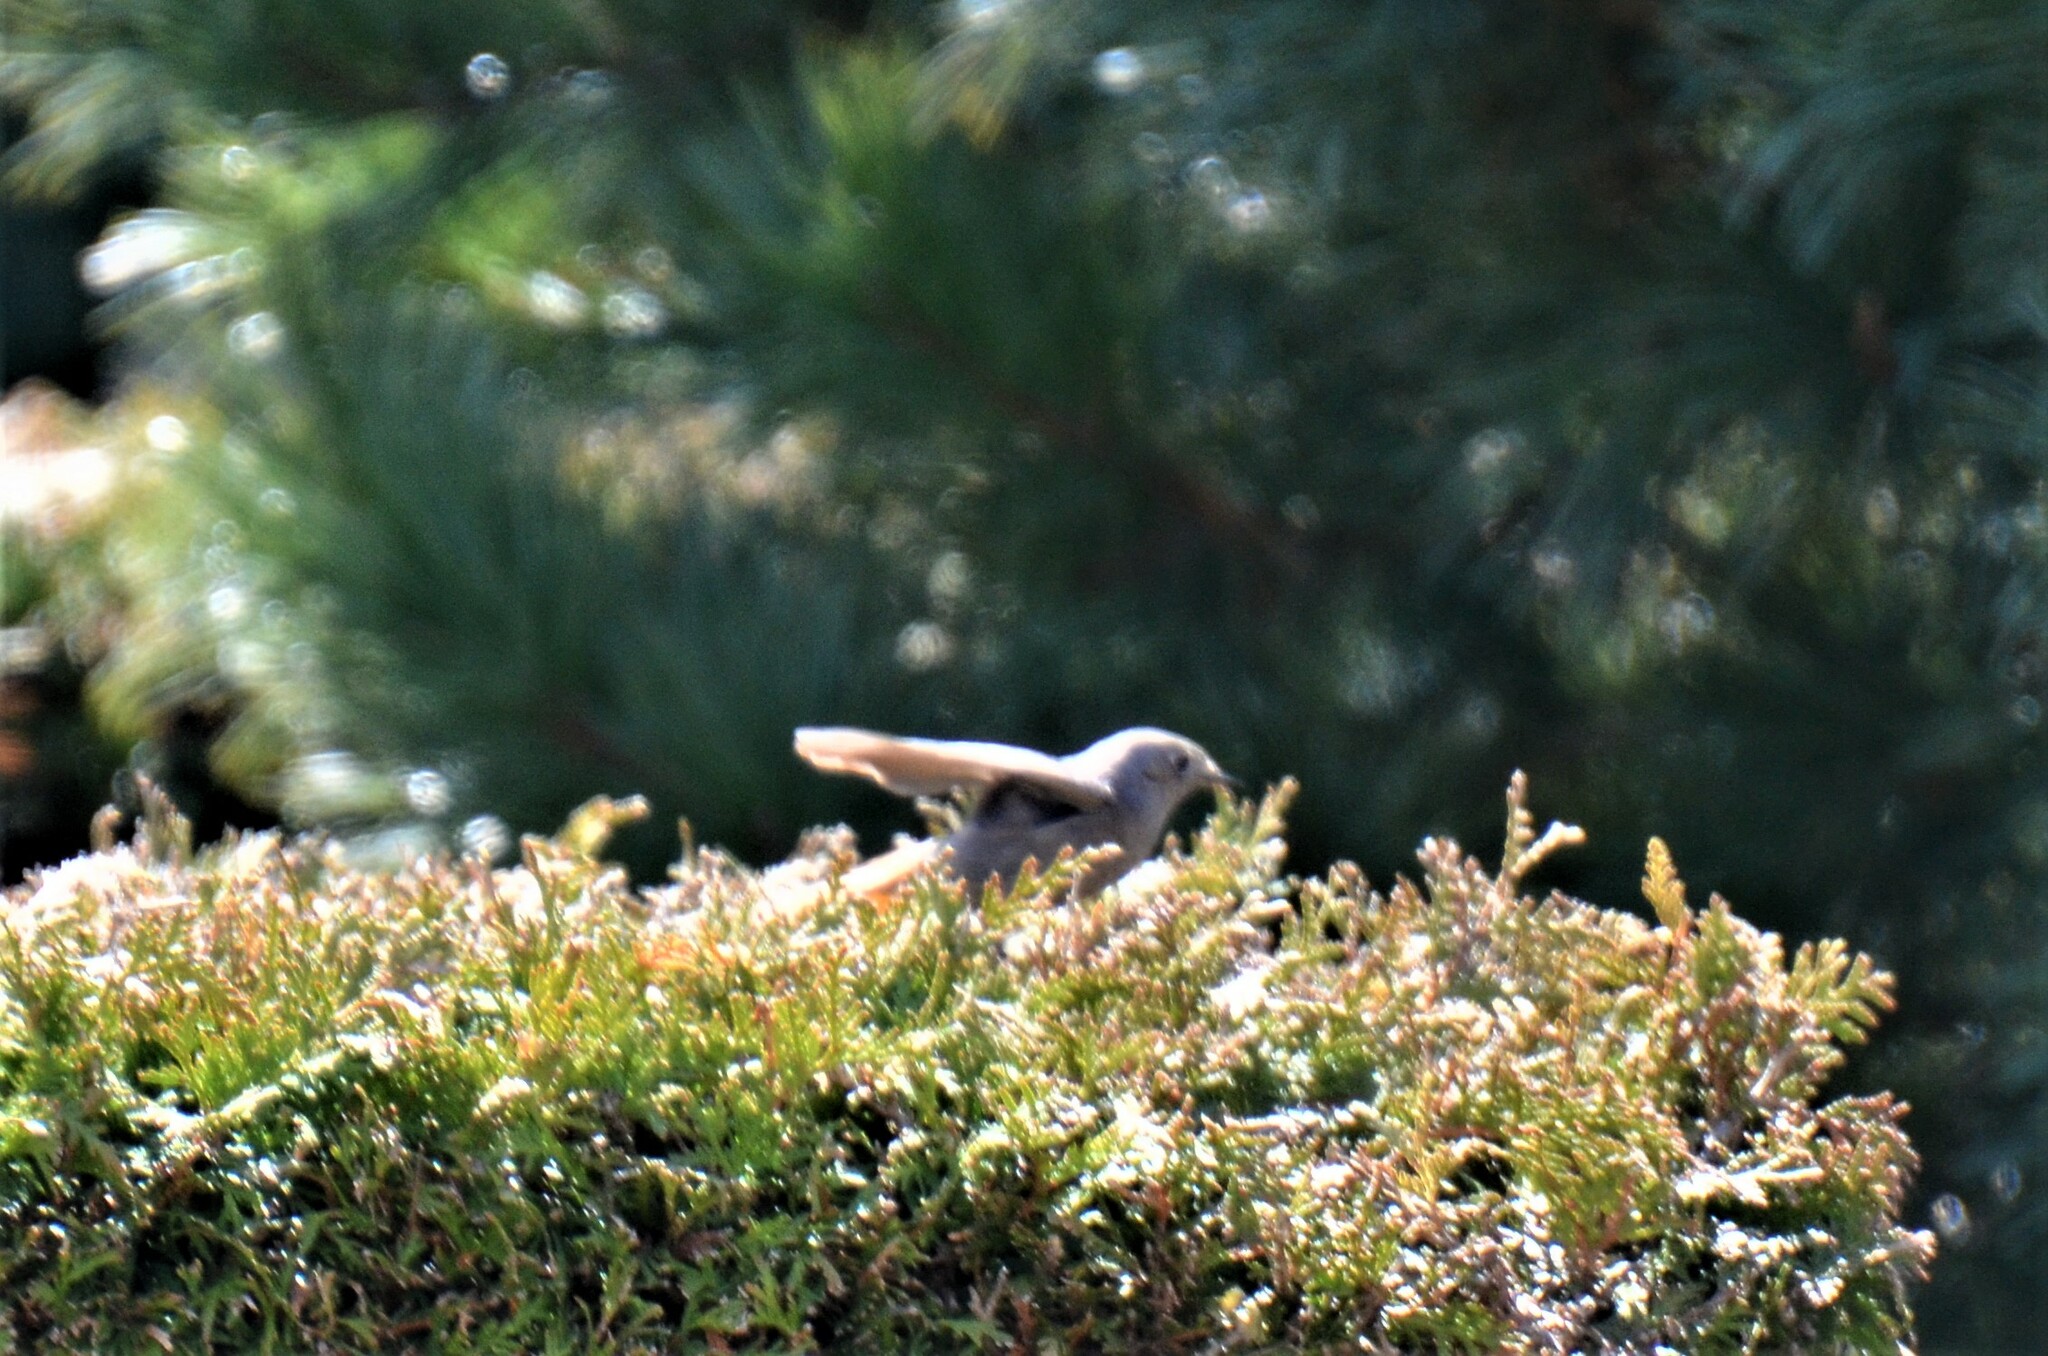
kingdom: Animalia
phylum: Chordata
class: Aves
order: Passeriformes
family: Muscicapidae
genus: Phoenicurus
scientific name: Phoenicurus ochruros
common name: Black redstart
